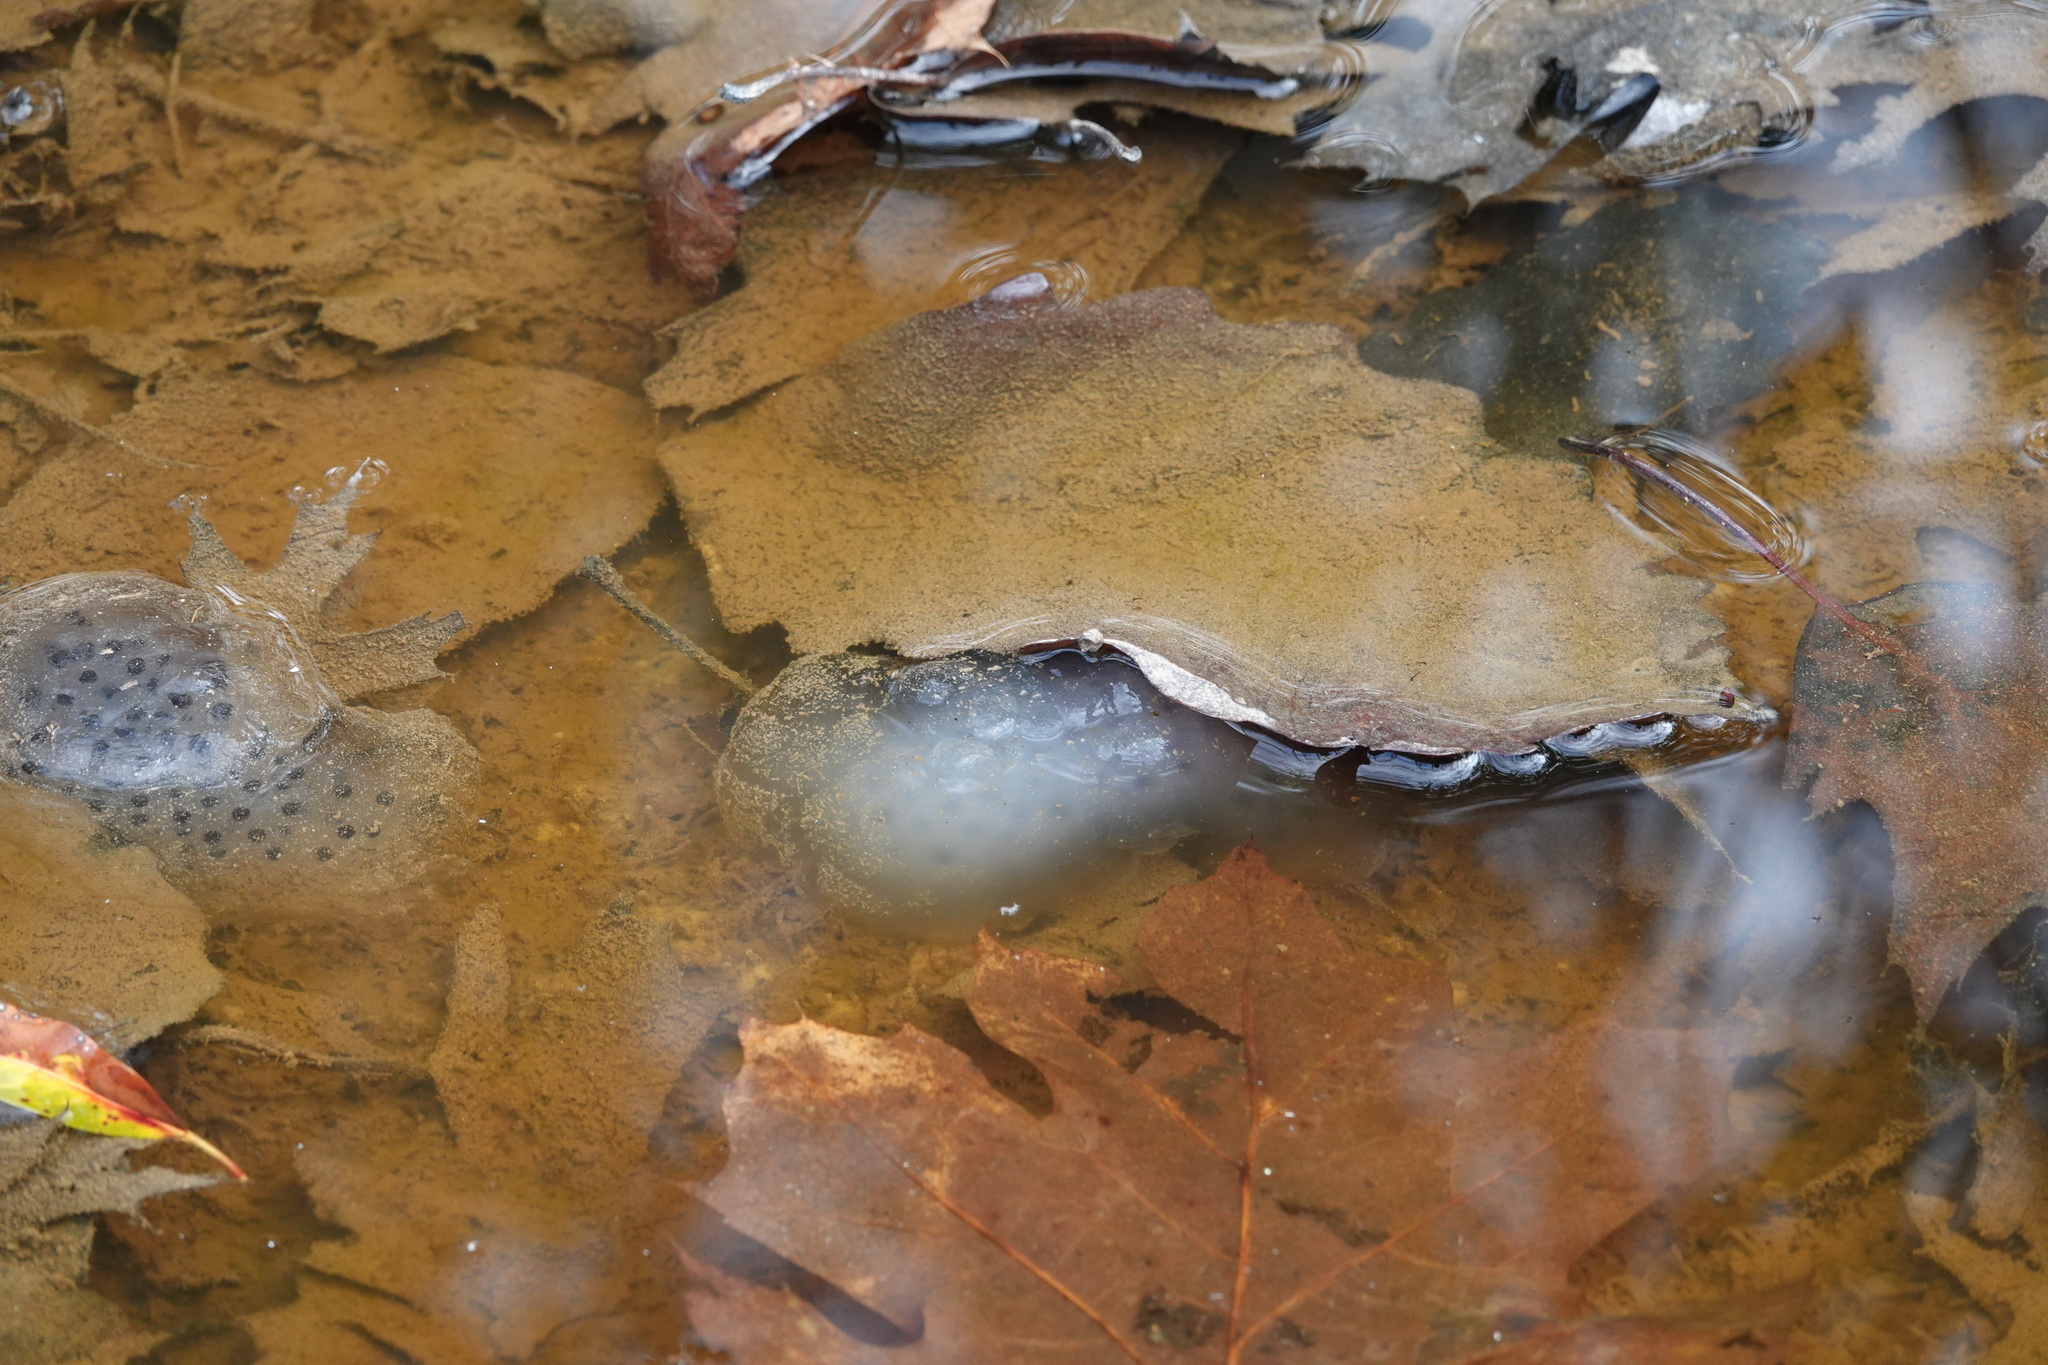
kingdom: Animalia
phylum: Chordata
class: Amphibia
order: Caudata
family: Ambystomatidae
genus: Ambystoma
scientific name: Ambystoma maculatum
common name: Spotted salamander
